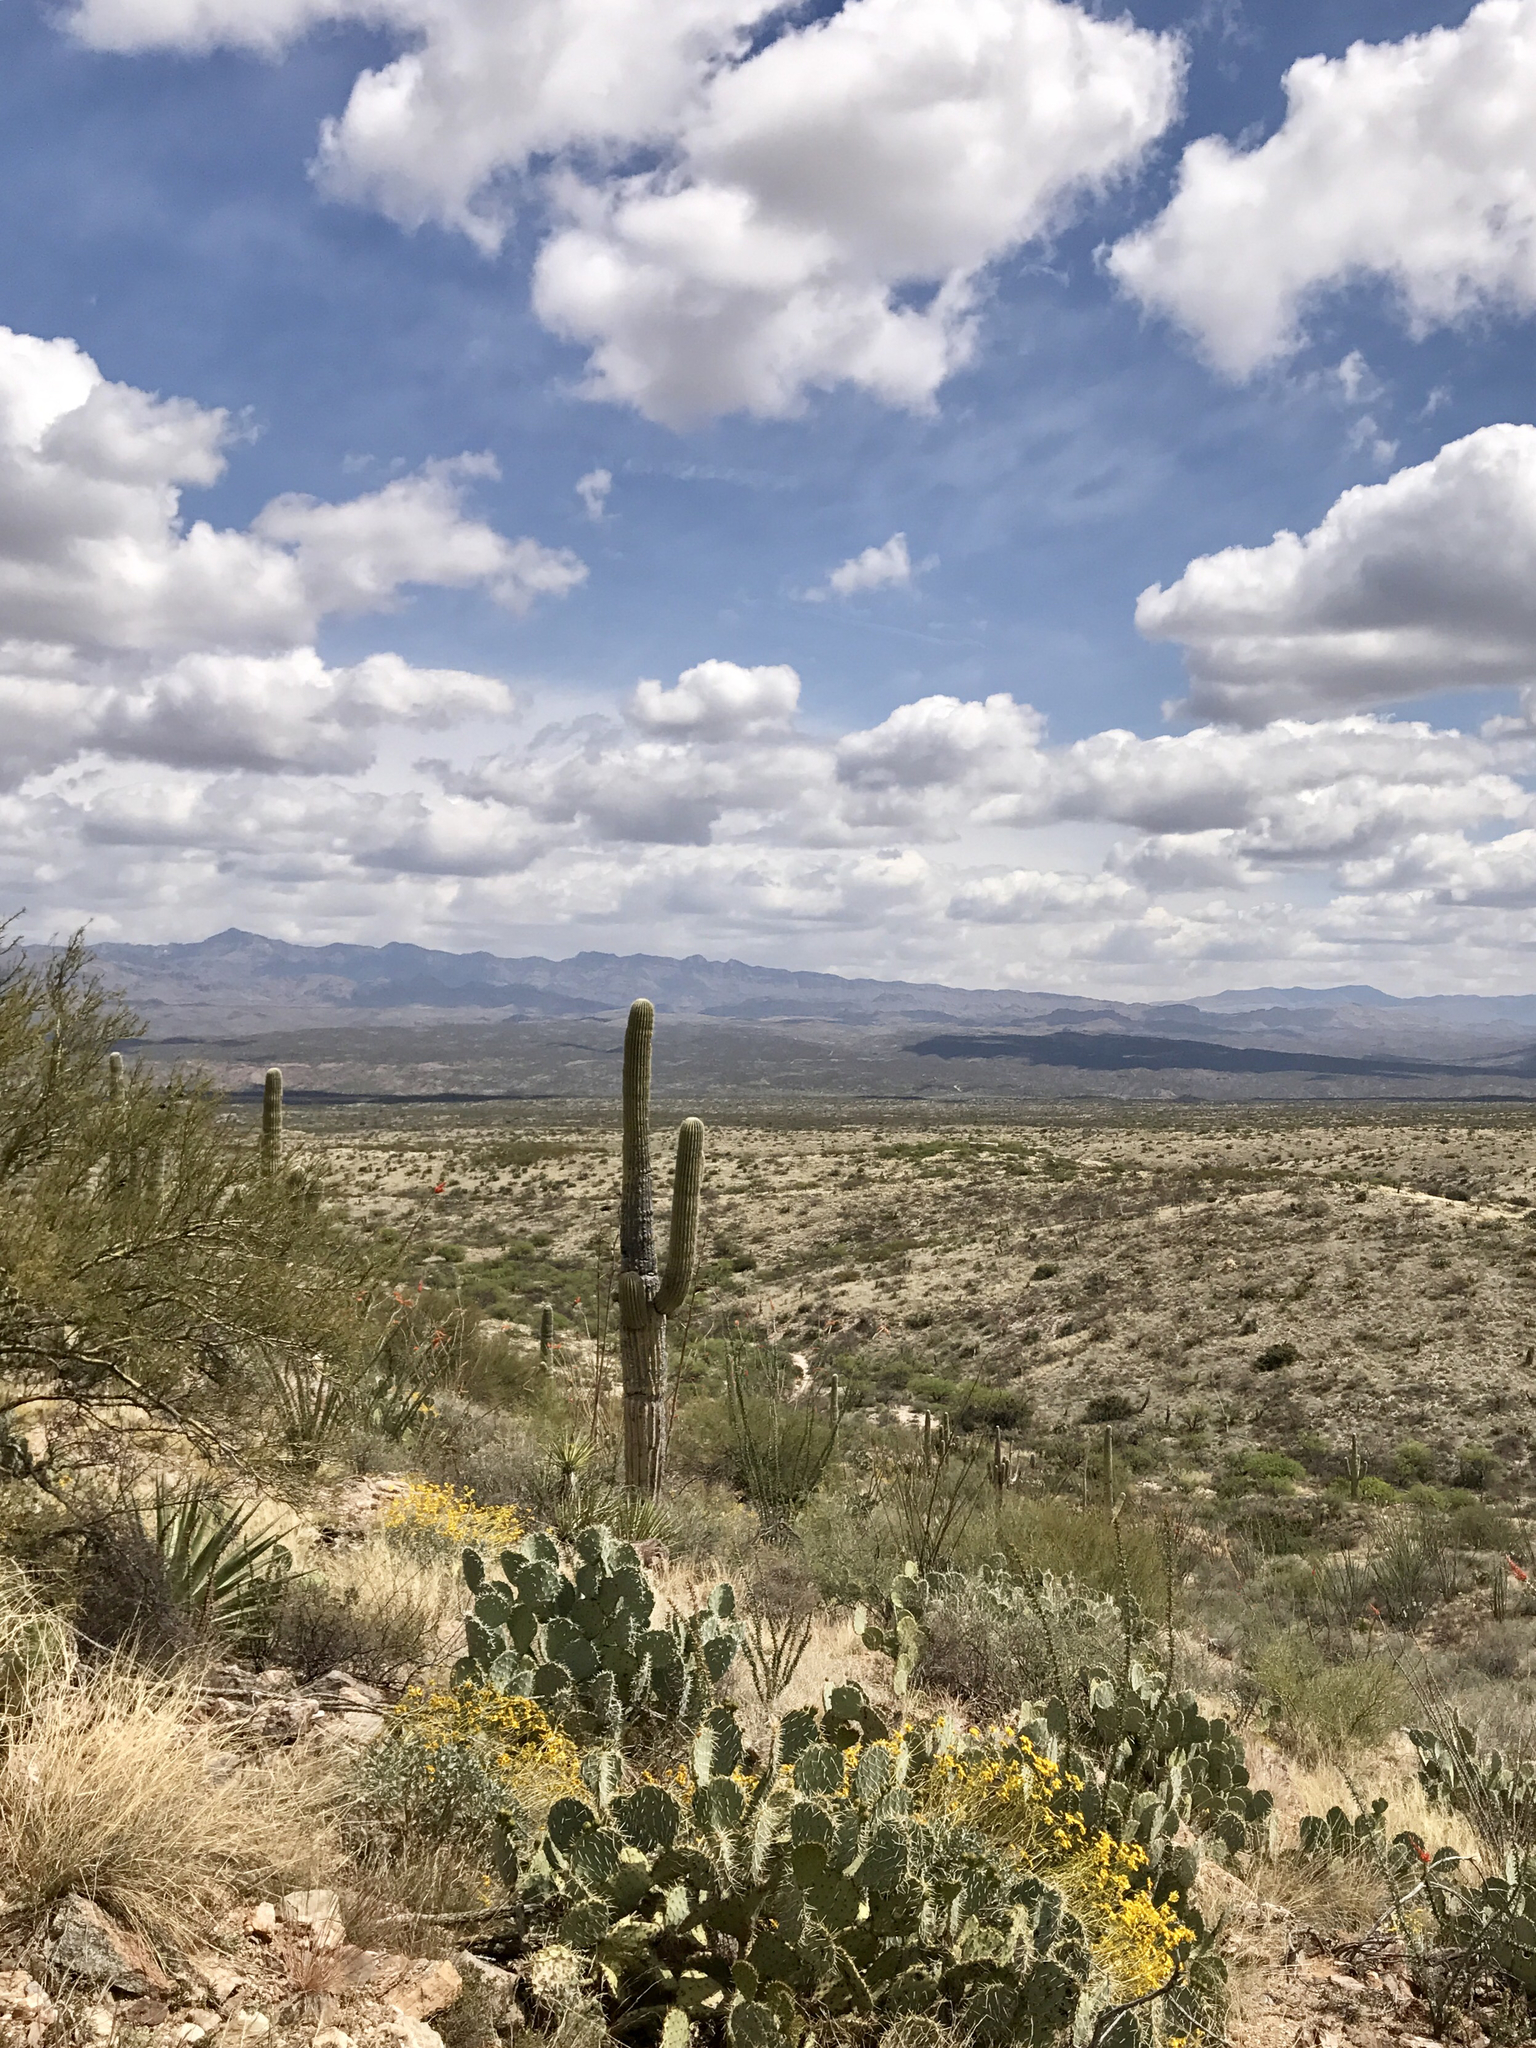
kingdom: Plantae
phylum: Tracheophyta
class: Magnoliopsida
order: Caryophyllales
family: Cactaceae
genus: Carnegiea
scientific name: Carnegiea gigantea
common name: Saguaro
